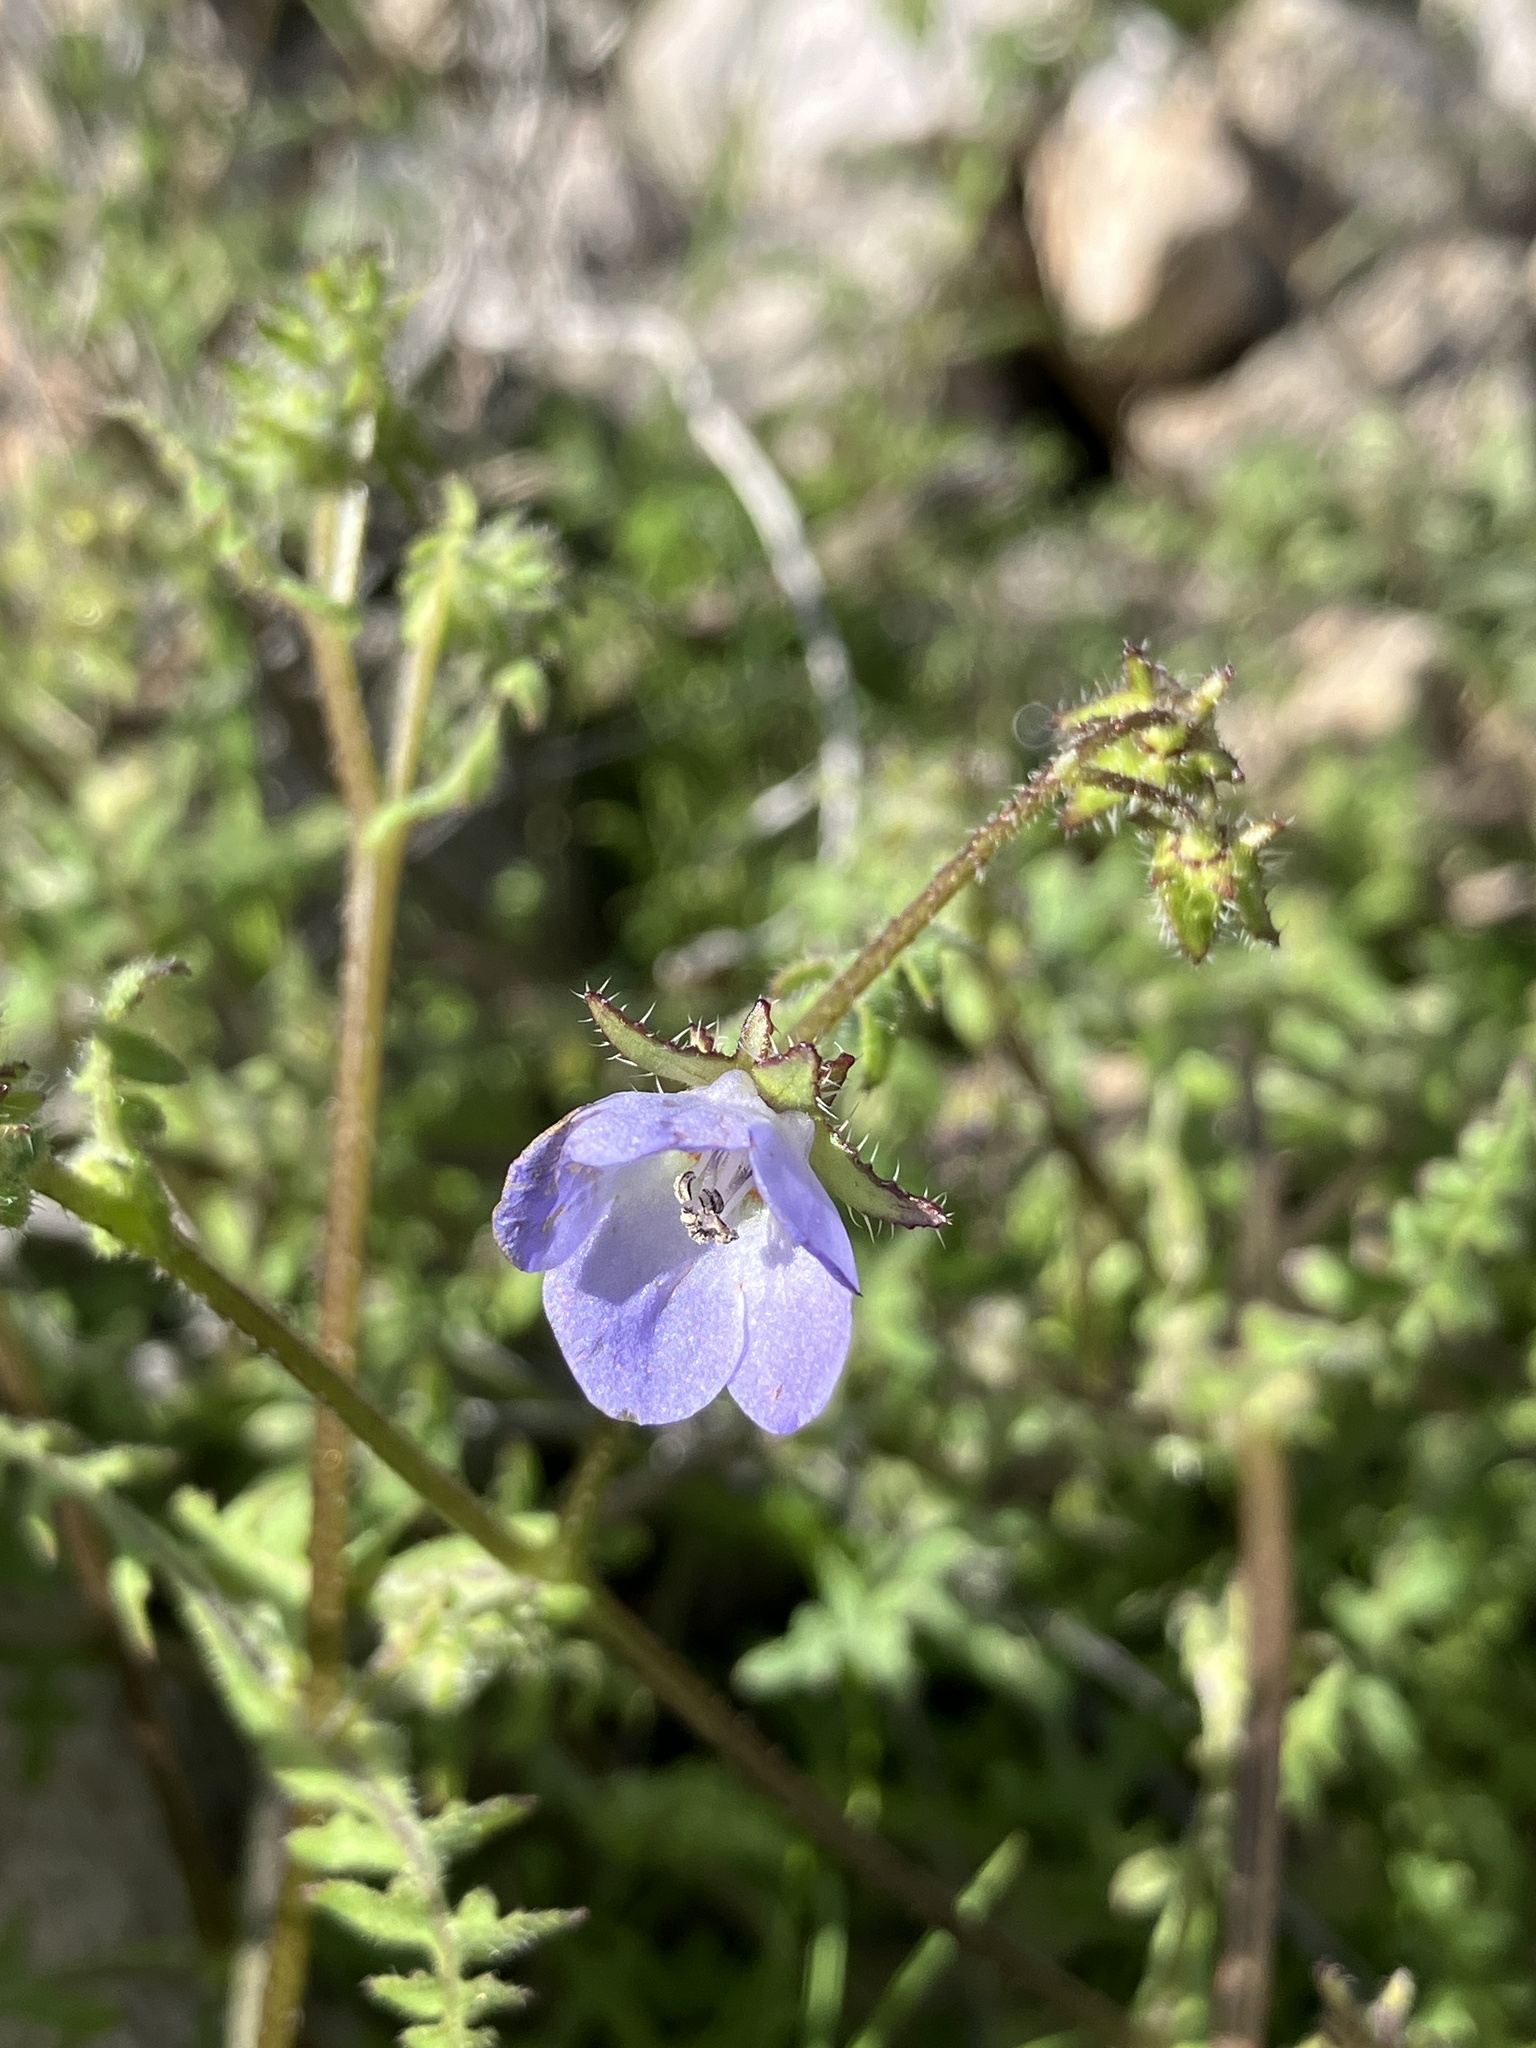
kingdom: Plantae
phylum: Tracheophyta
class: Magnoliopsida
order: Boraginales
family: Hydrophyllaceae
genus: Pholistoma
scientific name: Pholistoma auritum
